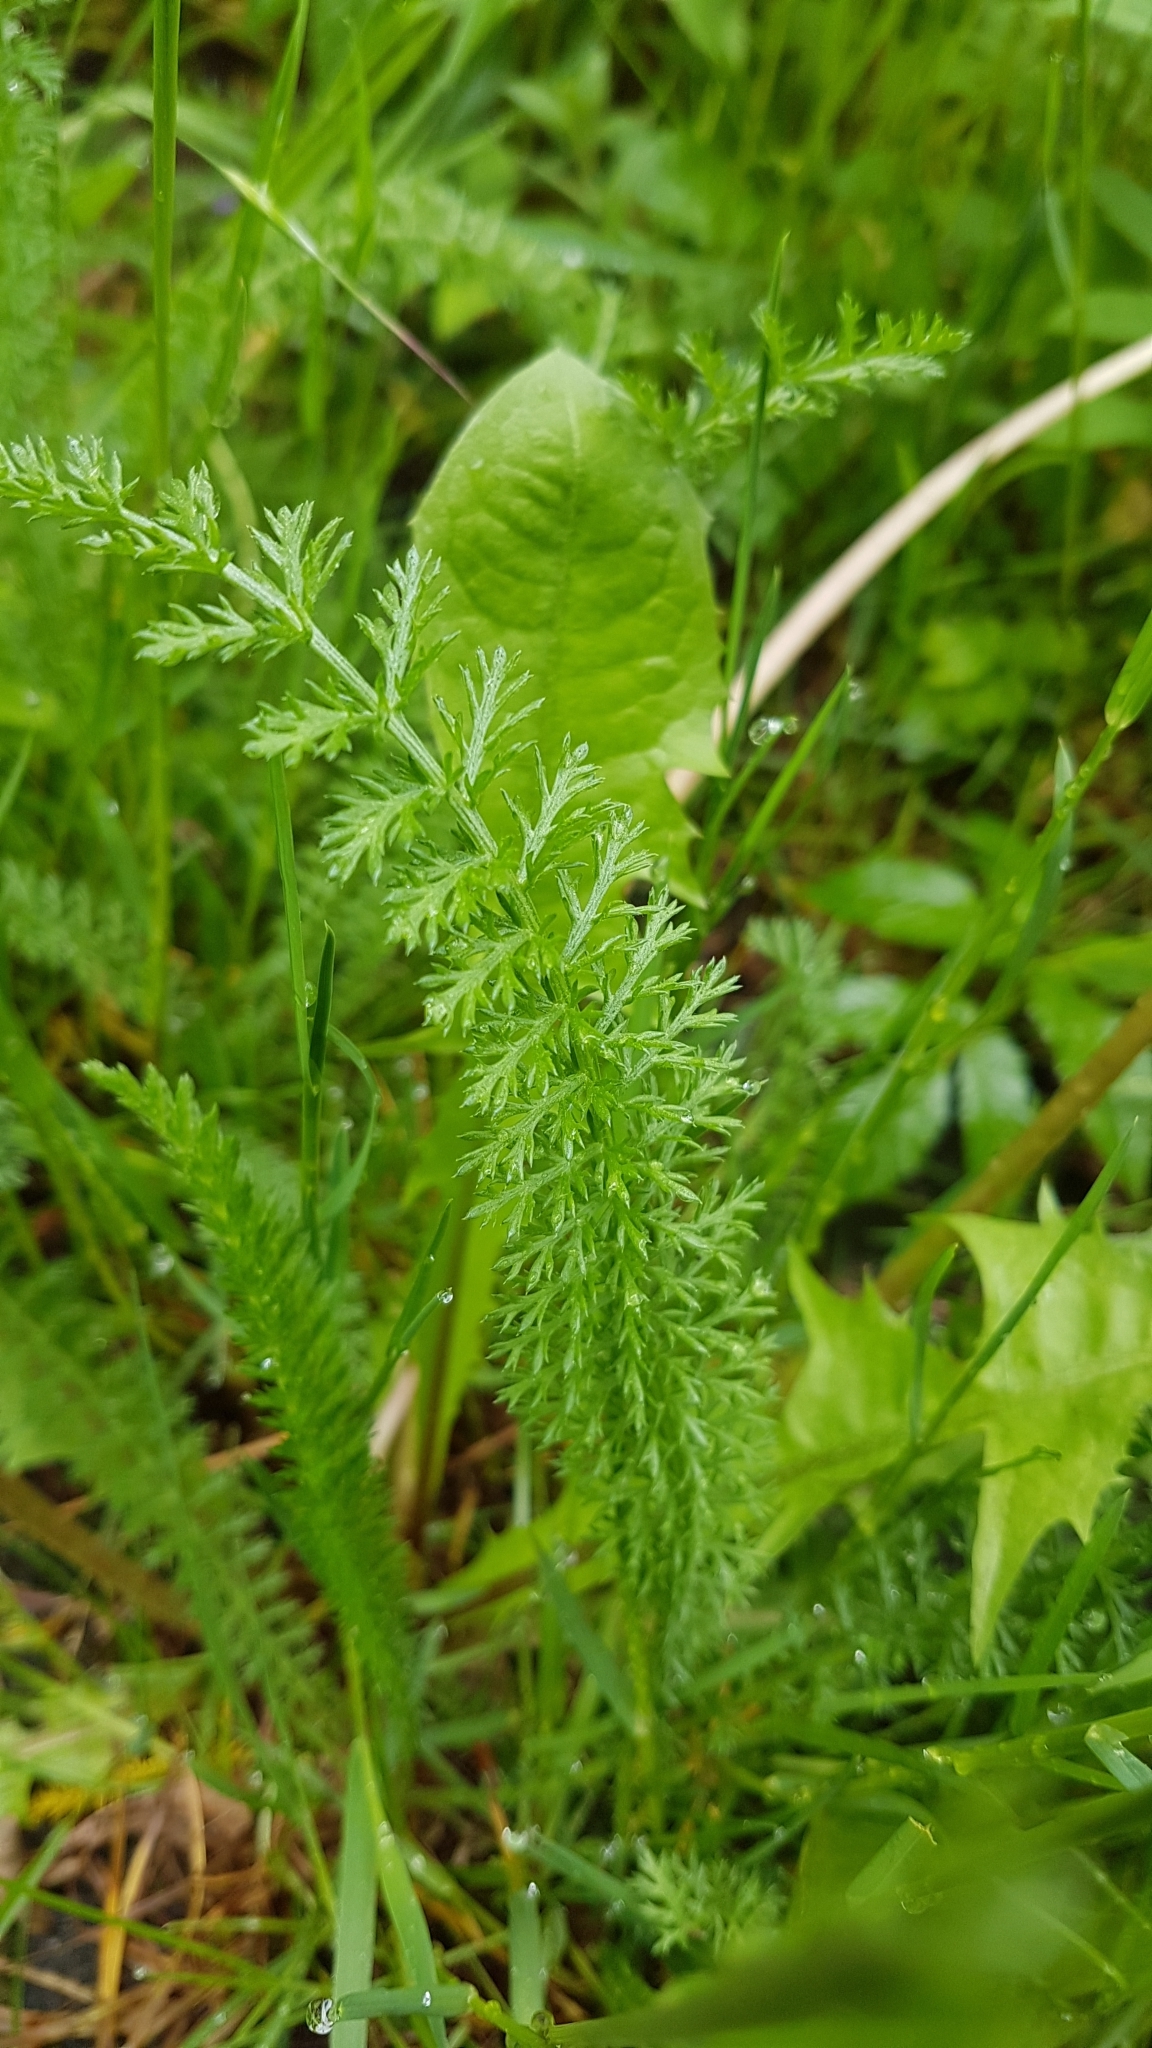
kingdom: Plantae
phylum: Tracheophyta
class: Magnoliopsida
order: Asterales
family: Asteraceae
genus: Achillea
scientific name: Achillea millefolium
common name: Yarrow
